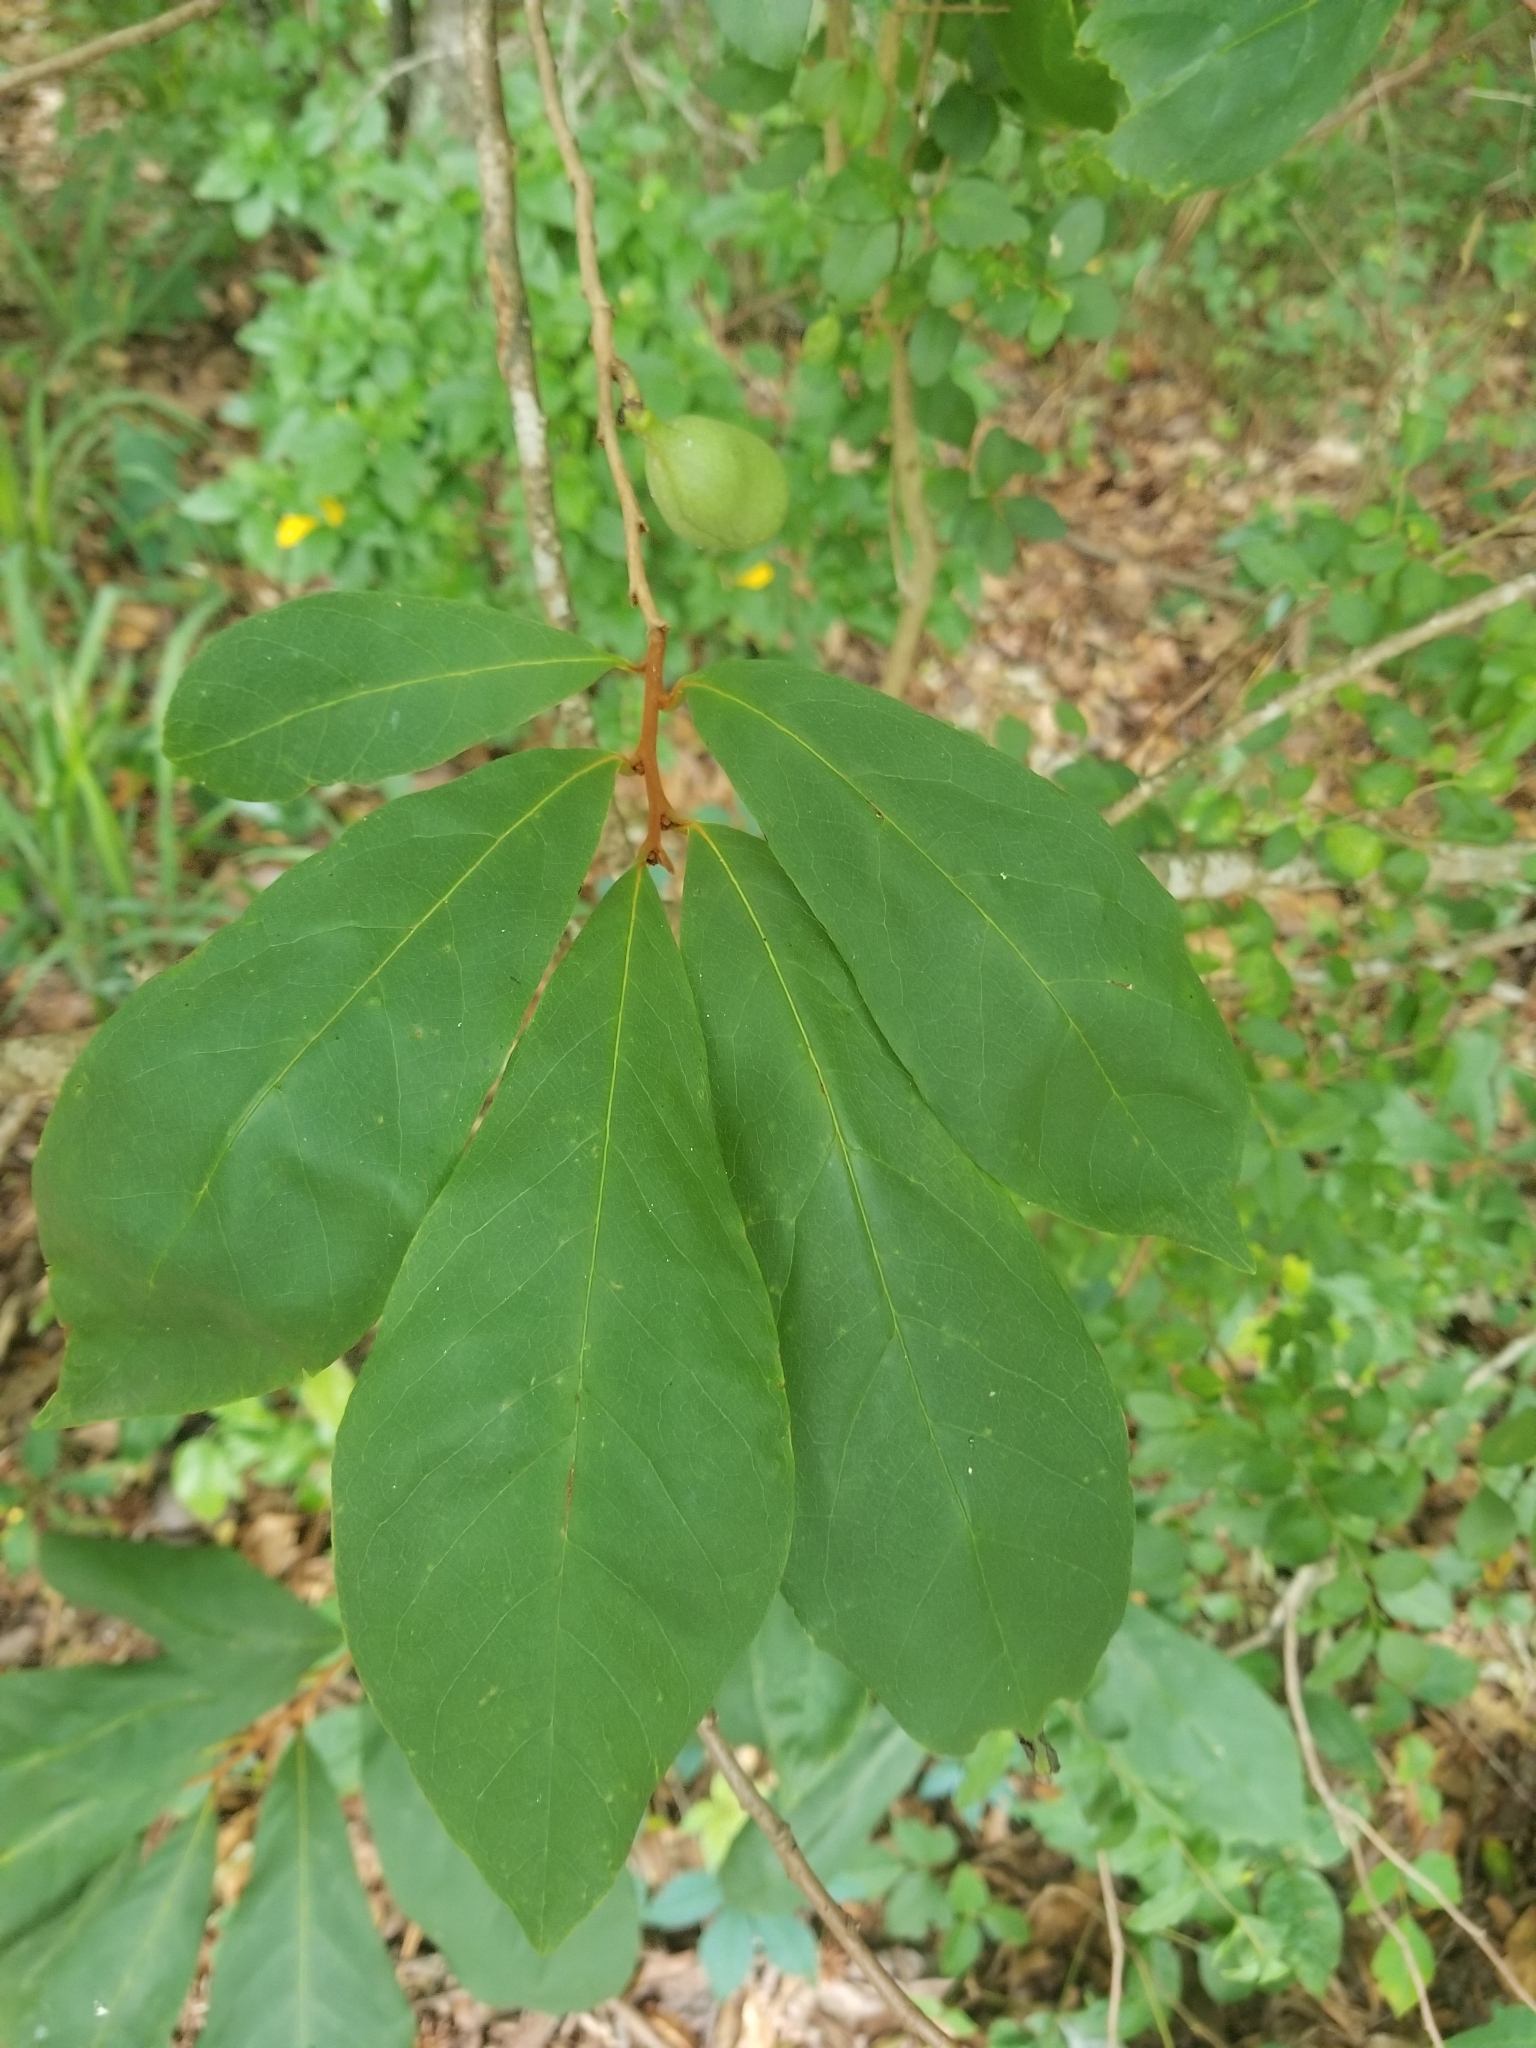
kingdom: Plantae
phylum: Tracheophyta
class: Magnoliopsida
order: Magnoliales
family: Annonaceae
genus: Asimina
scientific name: Asimina parviflora
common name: Dwarf pawpaw
